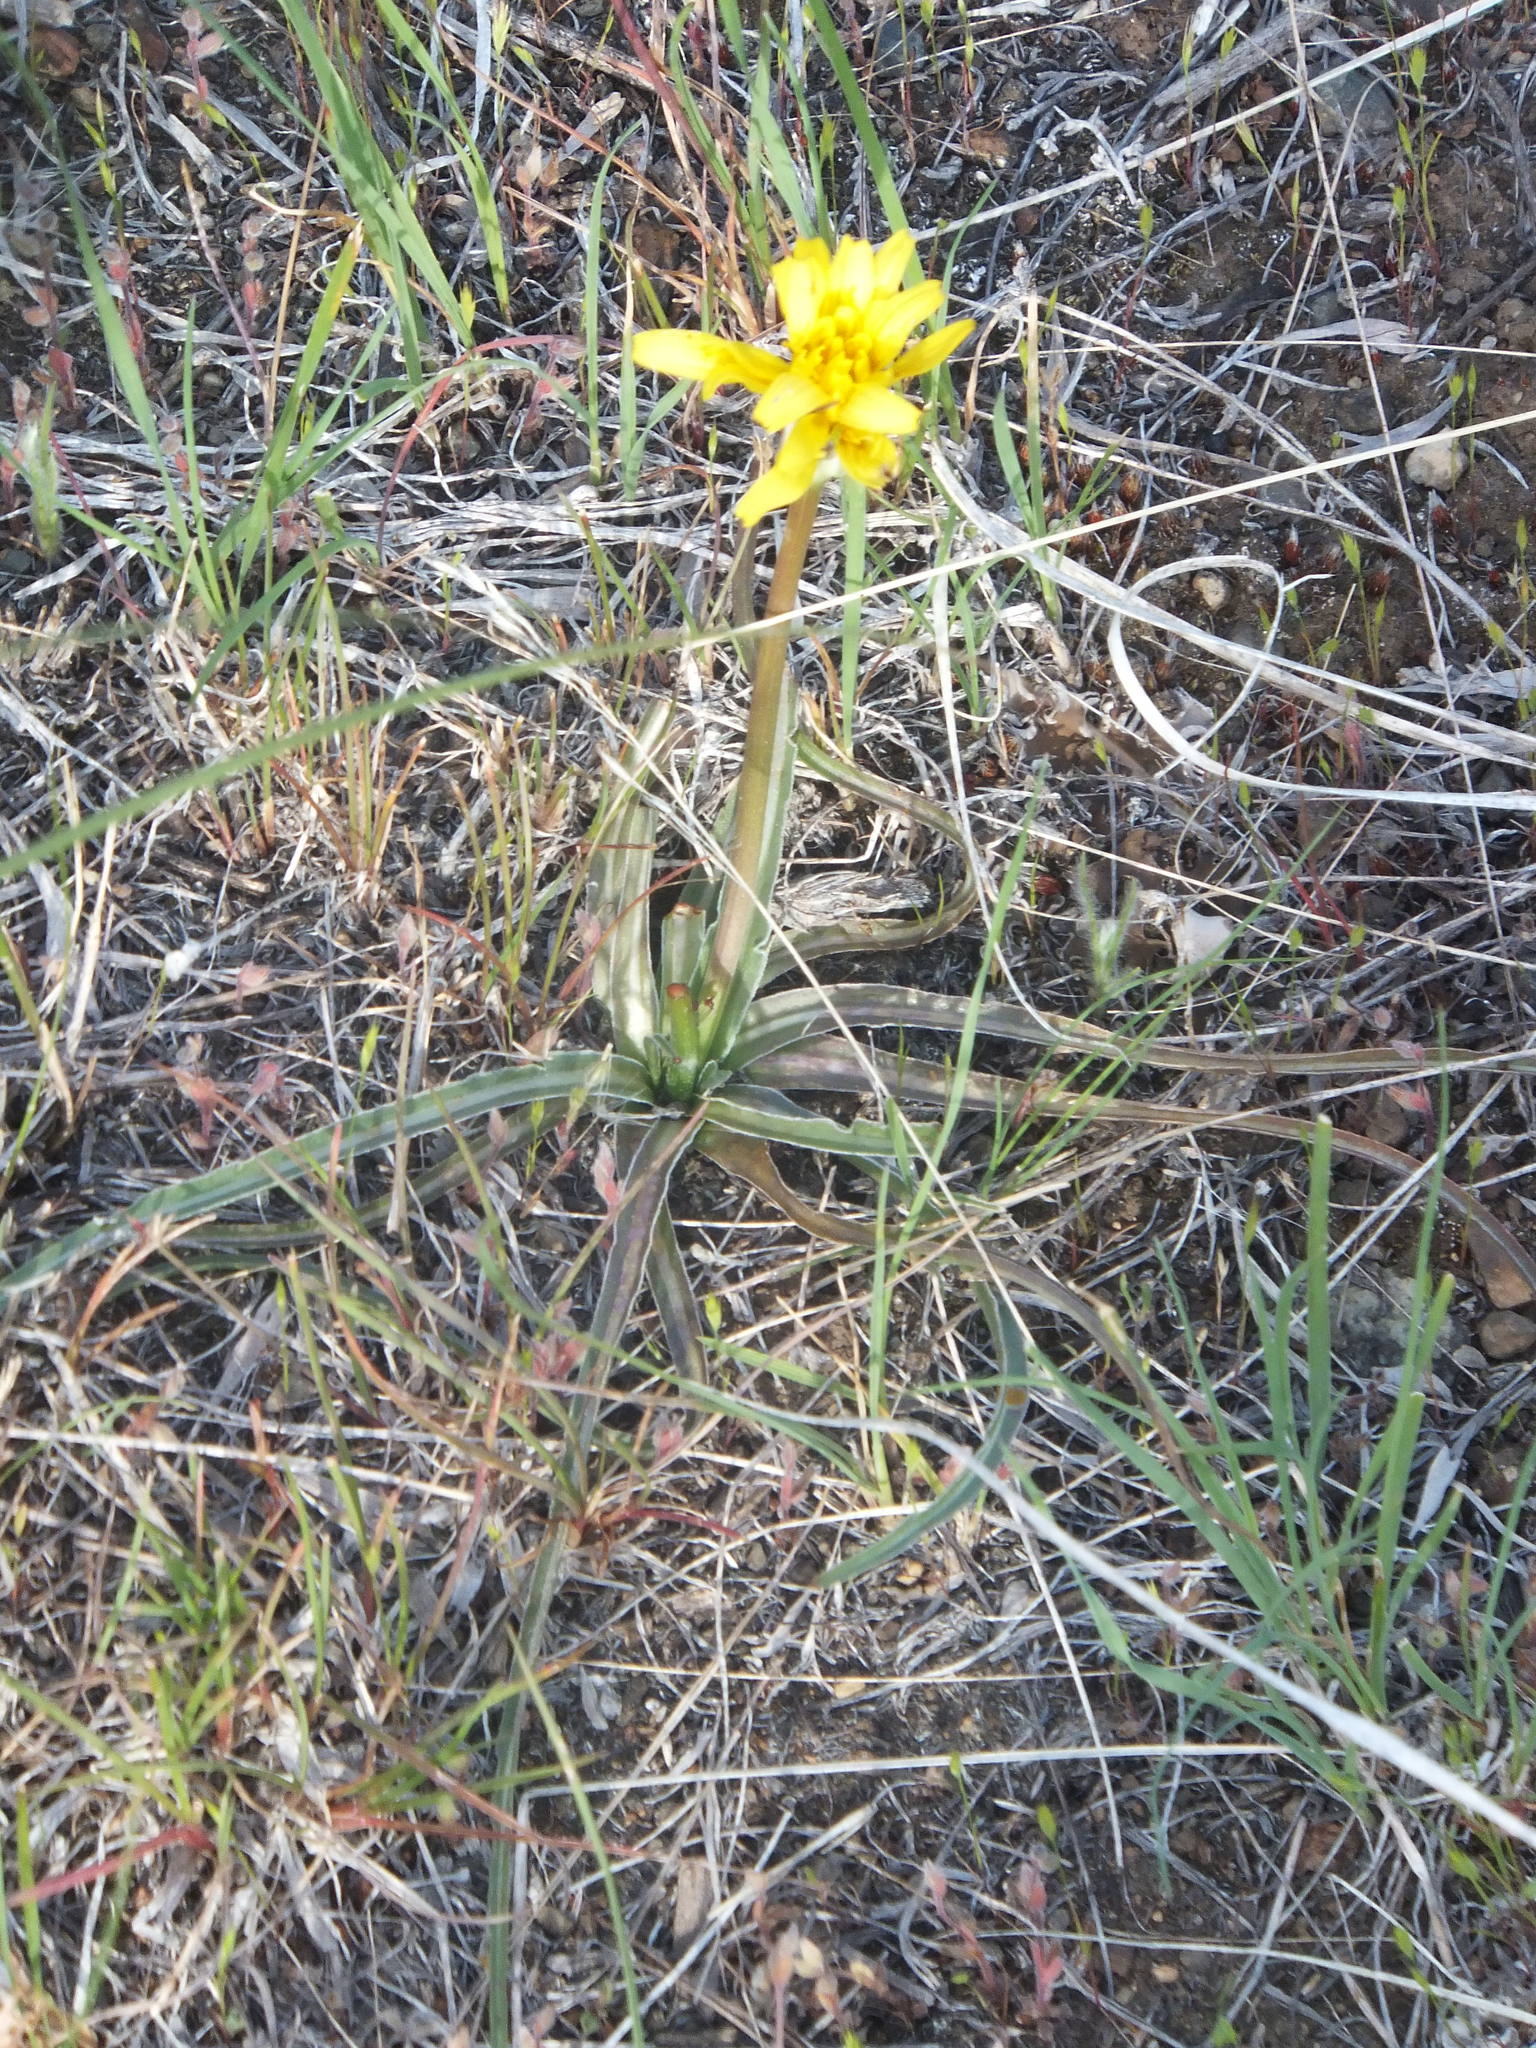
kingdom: Plantae
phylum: Tracheophyta
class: Magnoliopsida
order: Asterales
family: Asteraceae
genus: Microseris
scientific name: Microseris troximoides
